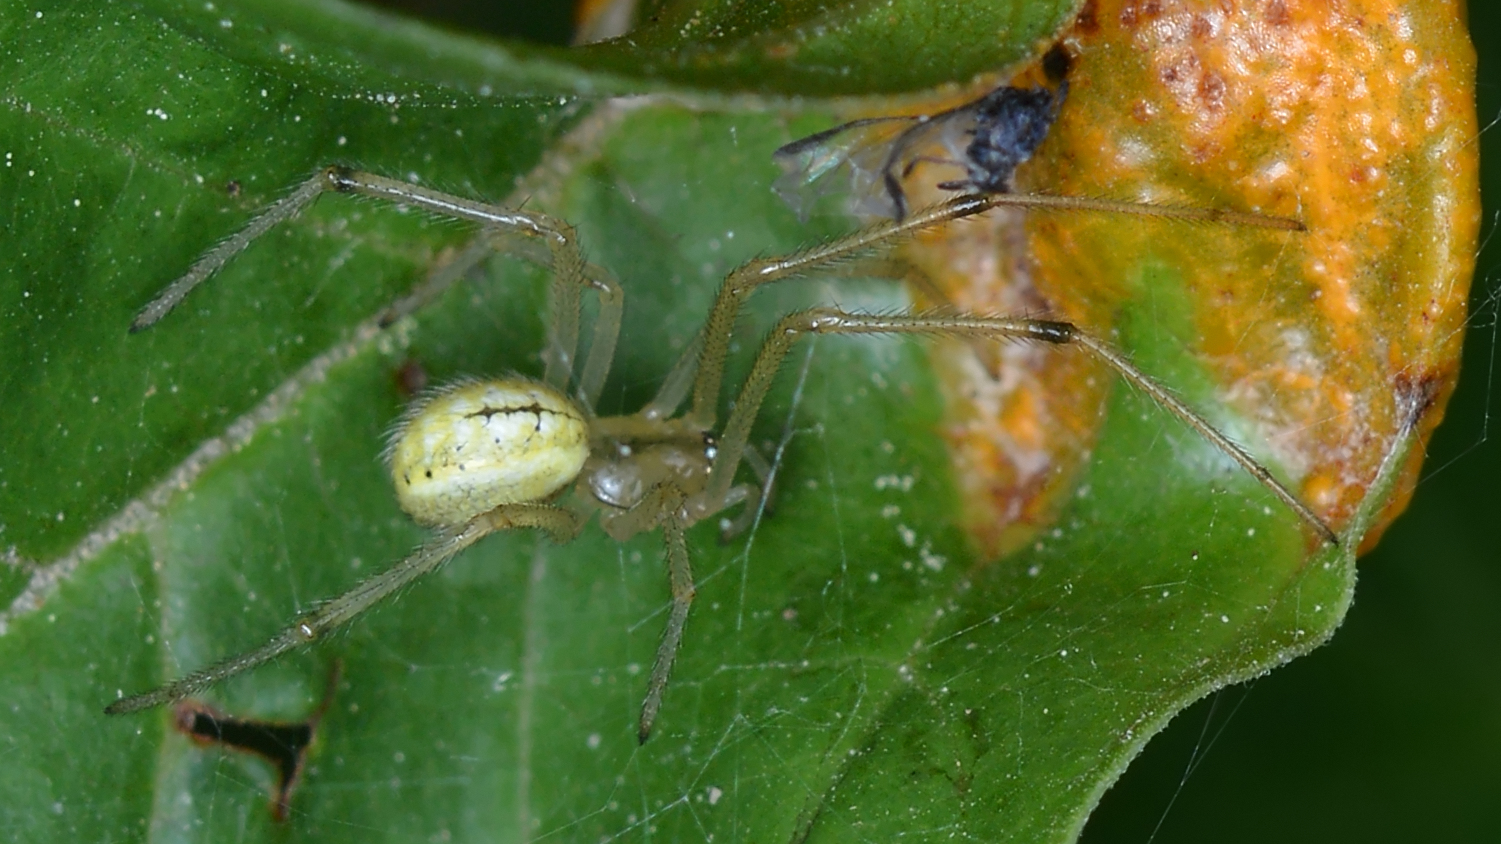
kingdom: Animalia
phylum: Arthropoda
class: Arachnida
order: Araneae
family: Theridiidae
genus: Enoplognatha
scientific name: Enoplognatha ovata
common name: Common candy-striped spider
